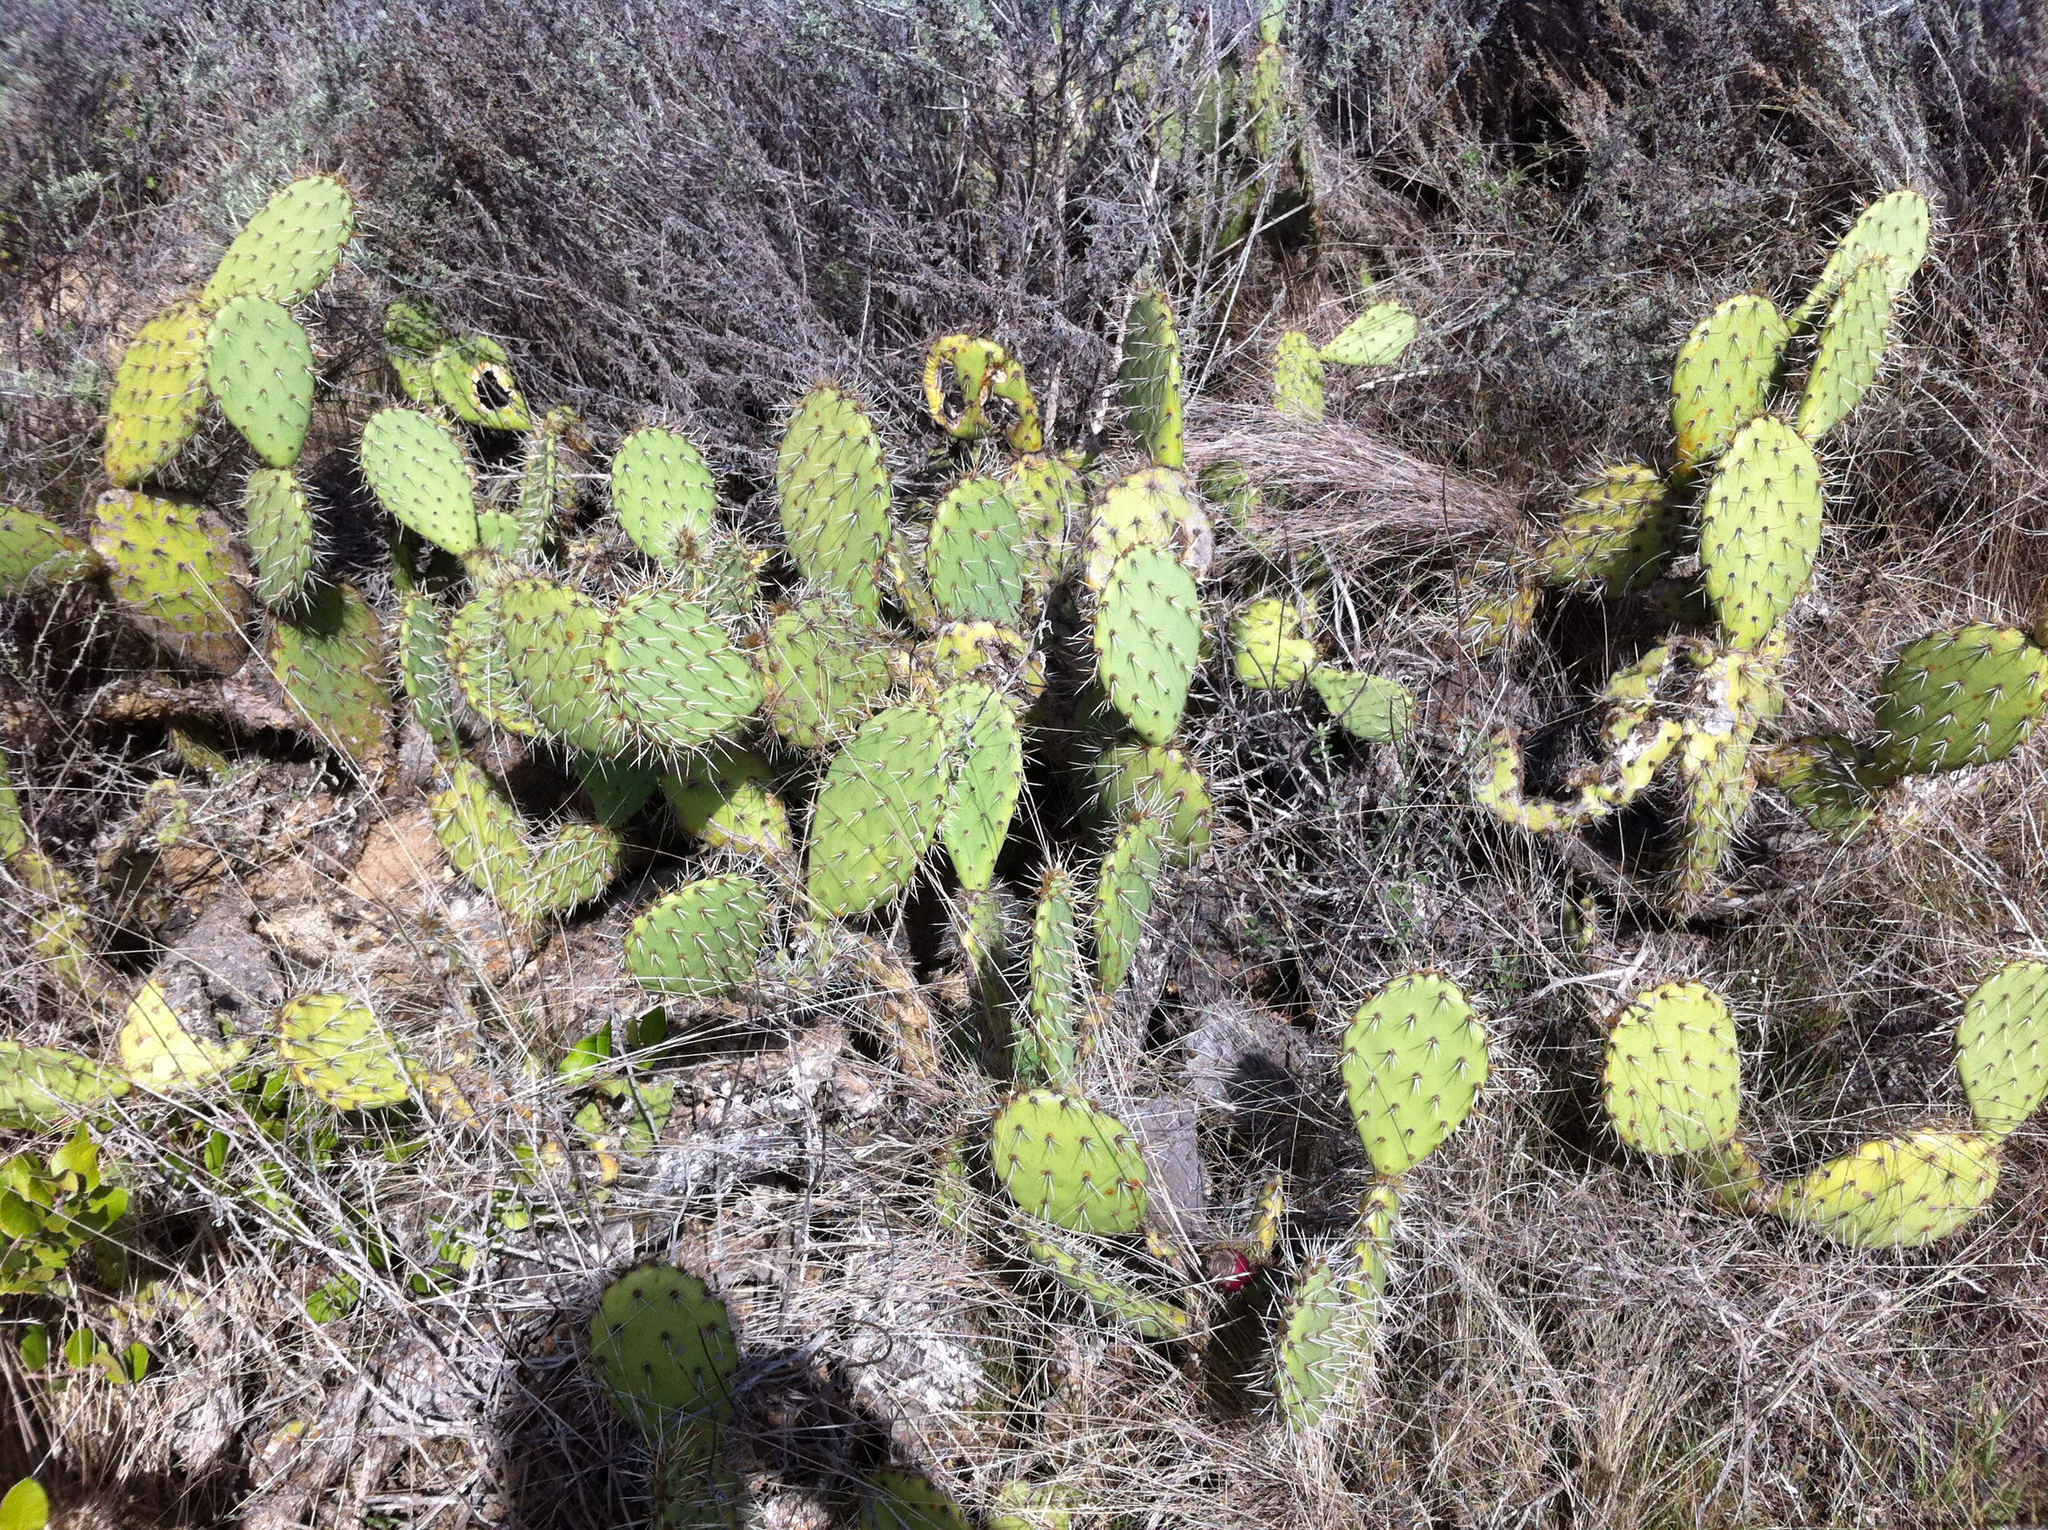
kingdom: Plantae
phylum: Tracheophyta
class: Magnoliopsida
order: Caryophyllales
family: Cactaceae
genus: Opuntia
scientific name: Opuntia littoralis
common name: Coastal prickly-pear
